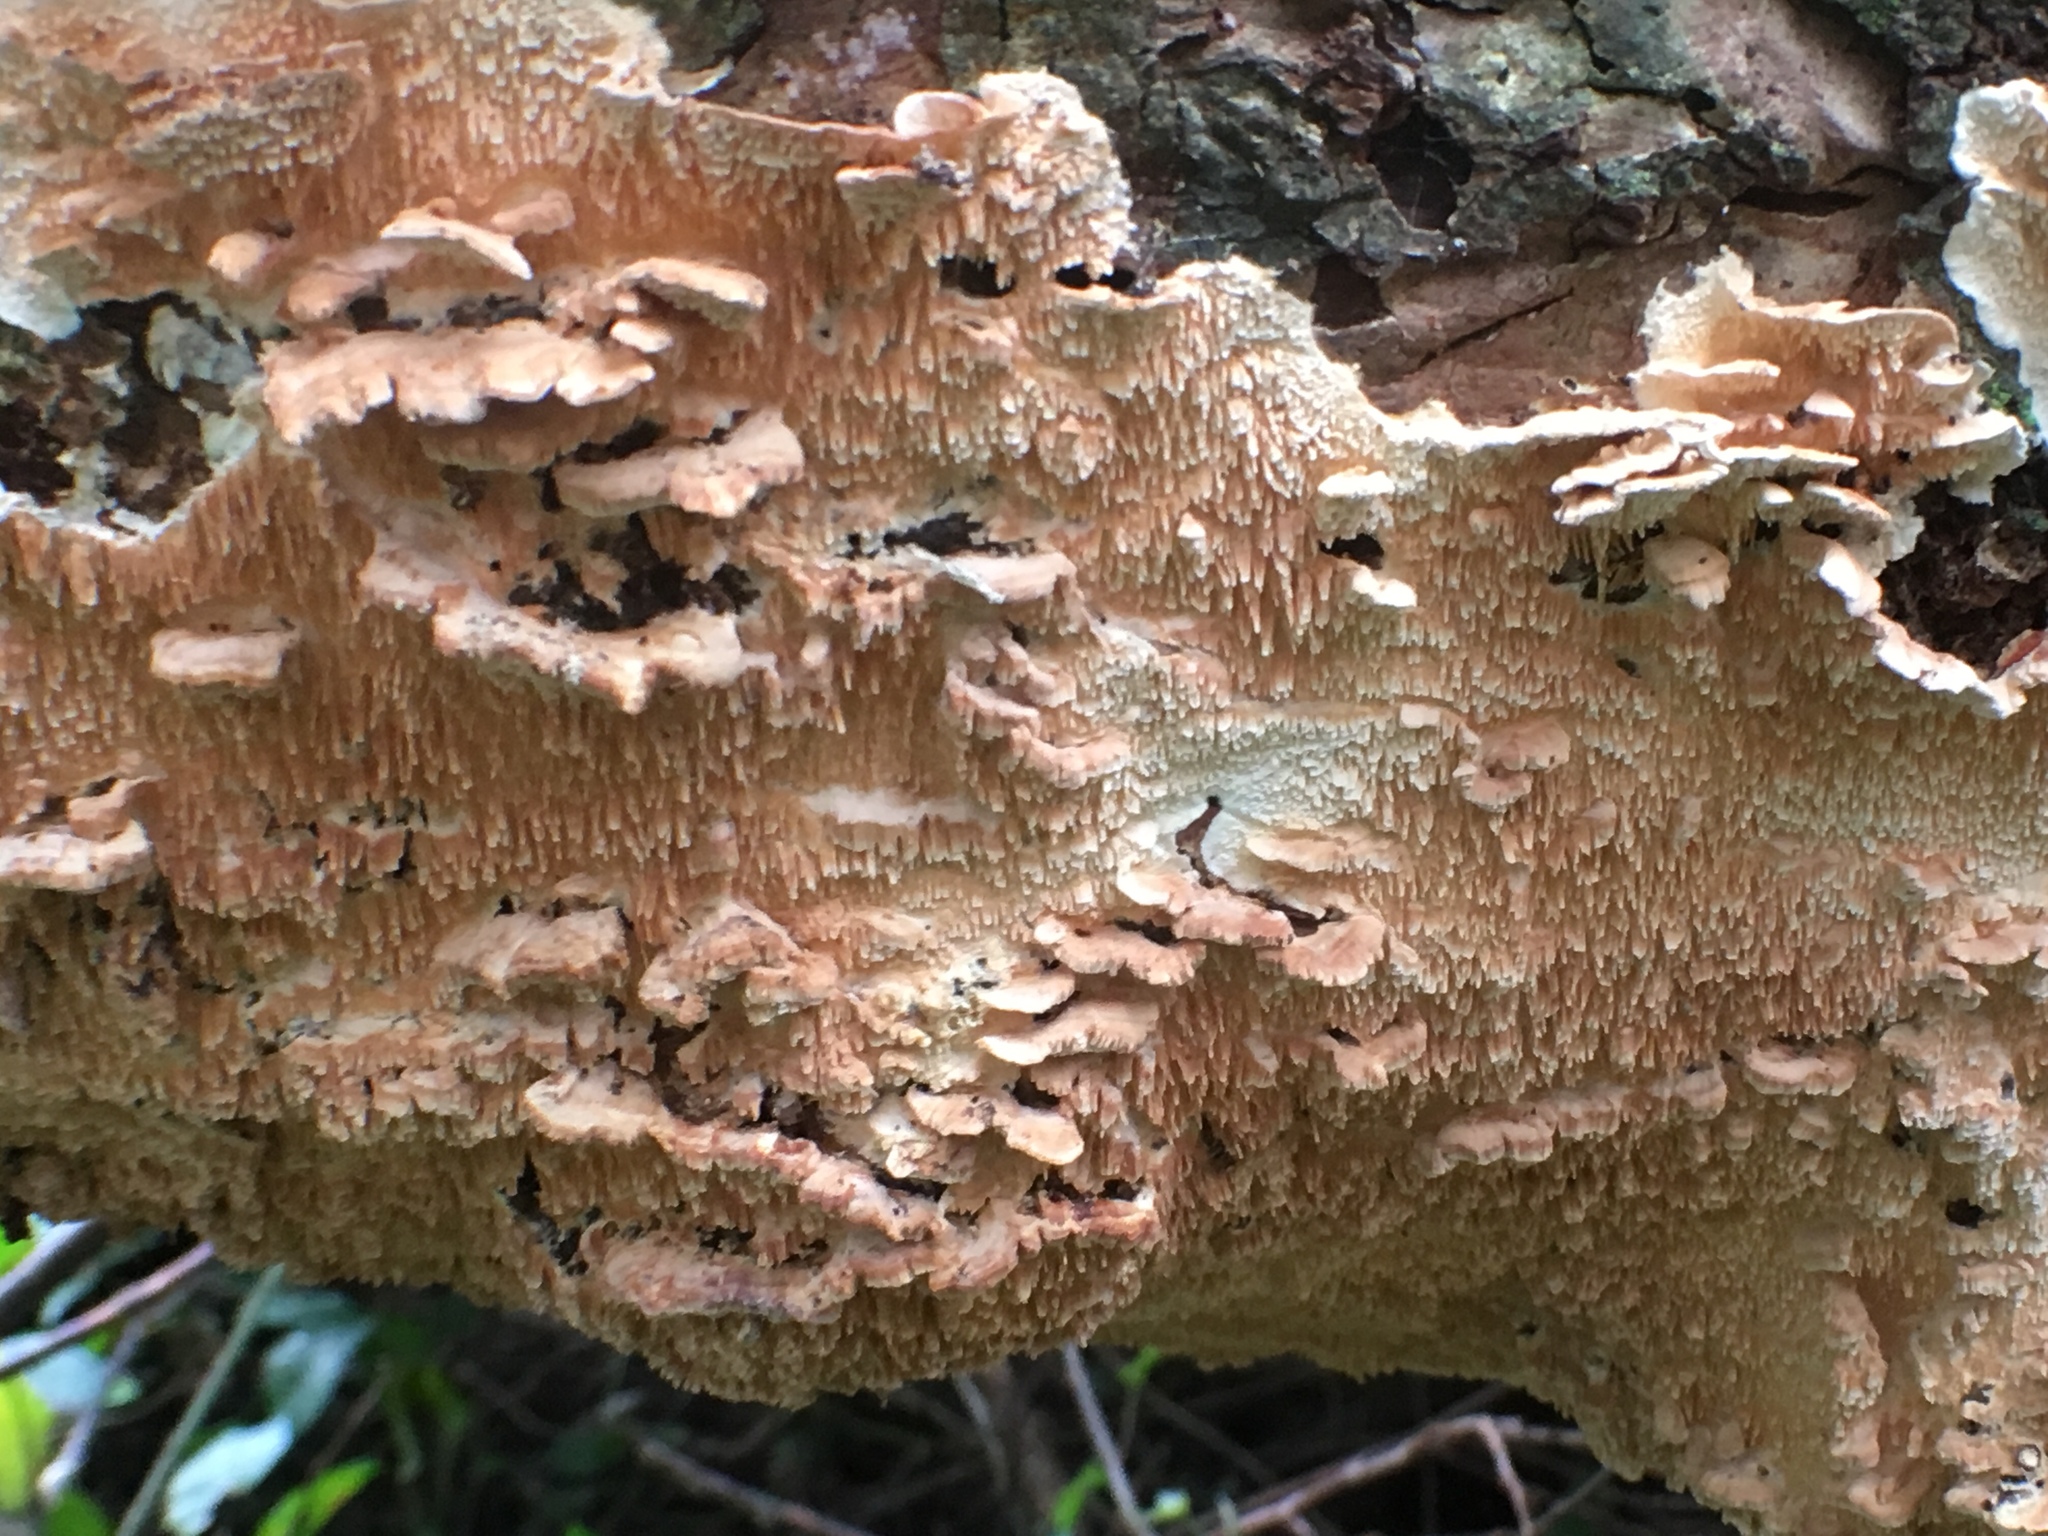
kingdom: Fungi
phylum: Basidiomycota
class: Agaricomycetes
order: Polyporales
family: Cerrenaceae
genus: Cerrena
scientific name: Cerrena zonata
